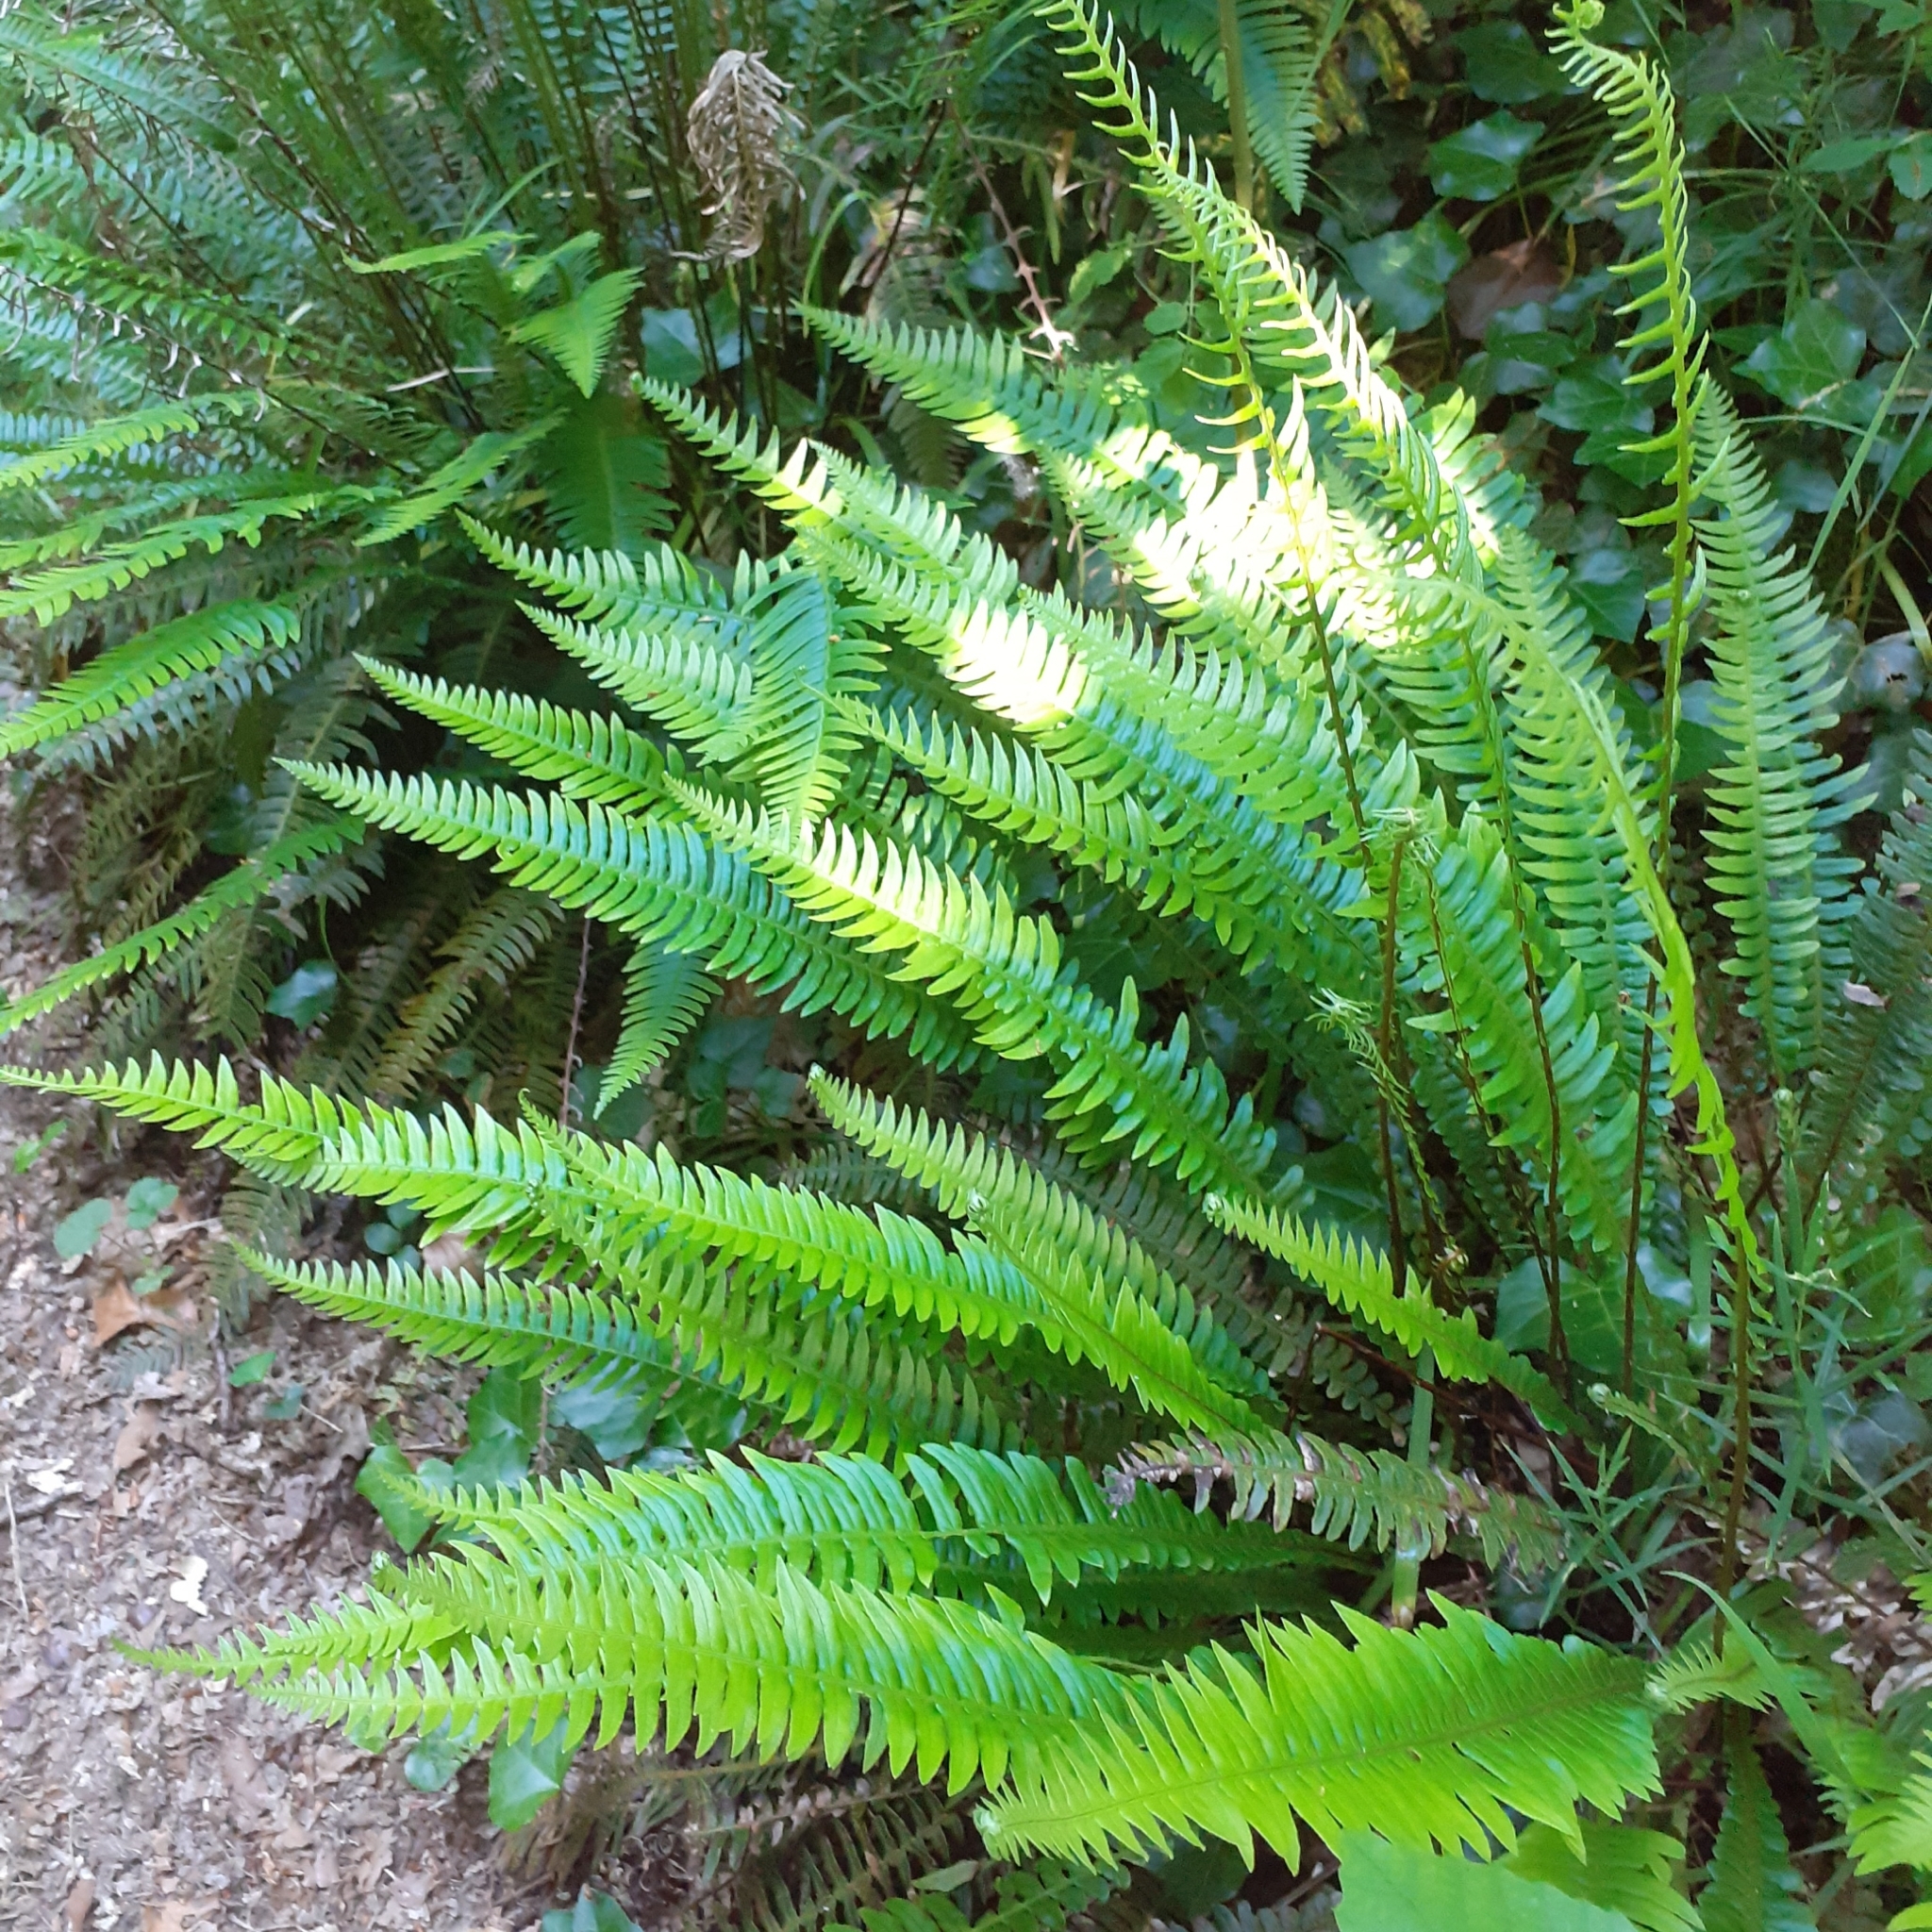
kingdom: Plantae
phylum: Tracheophyta
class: Polypodiopsida
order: Polypodiales
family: Blechnaceae
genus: Struthiopteris
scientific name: Struthiopteris spicant
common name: Deer fern
